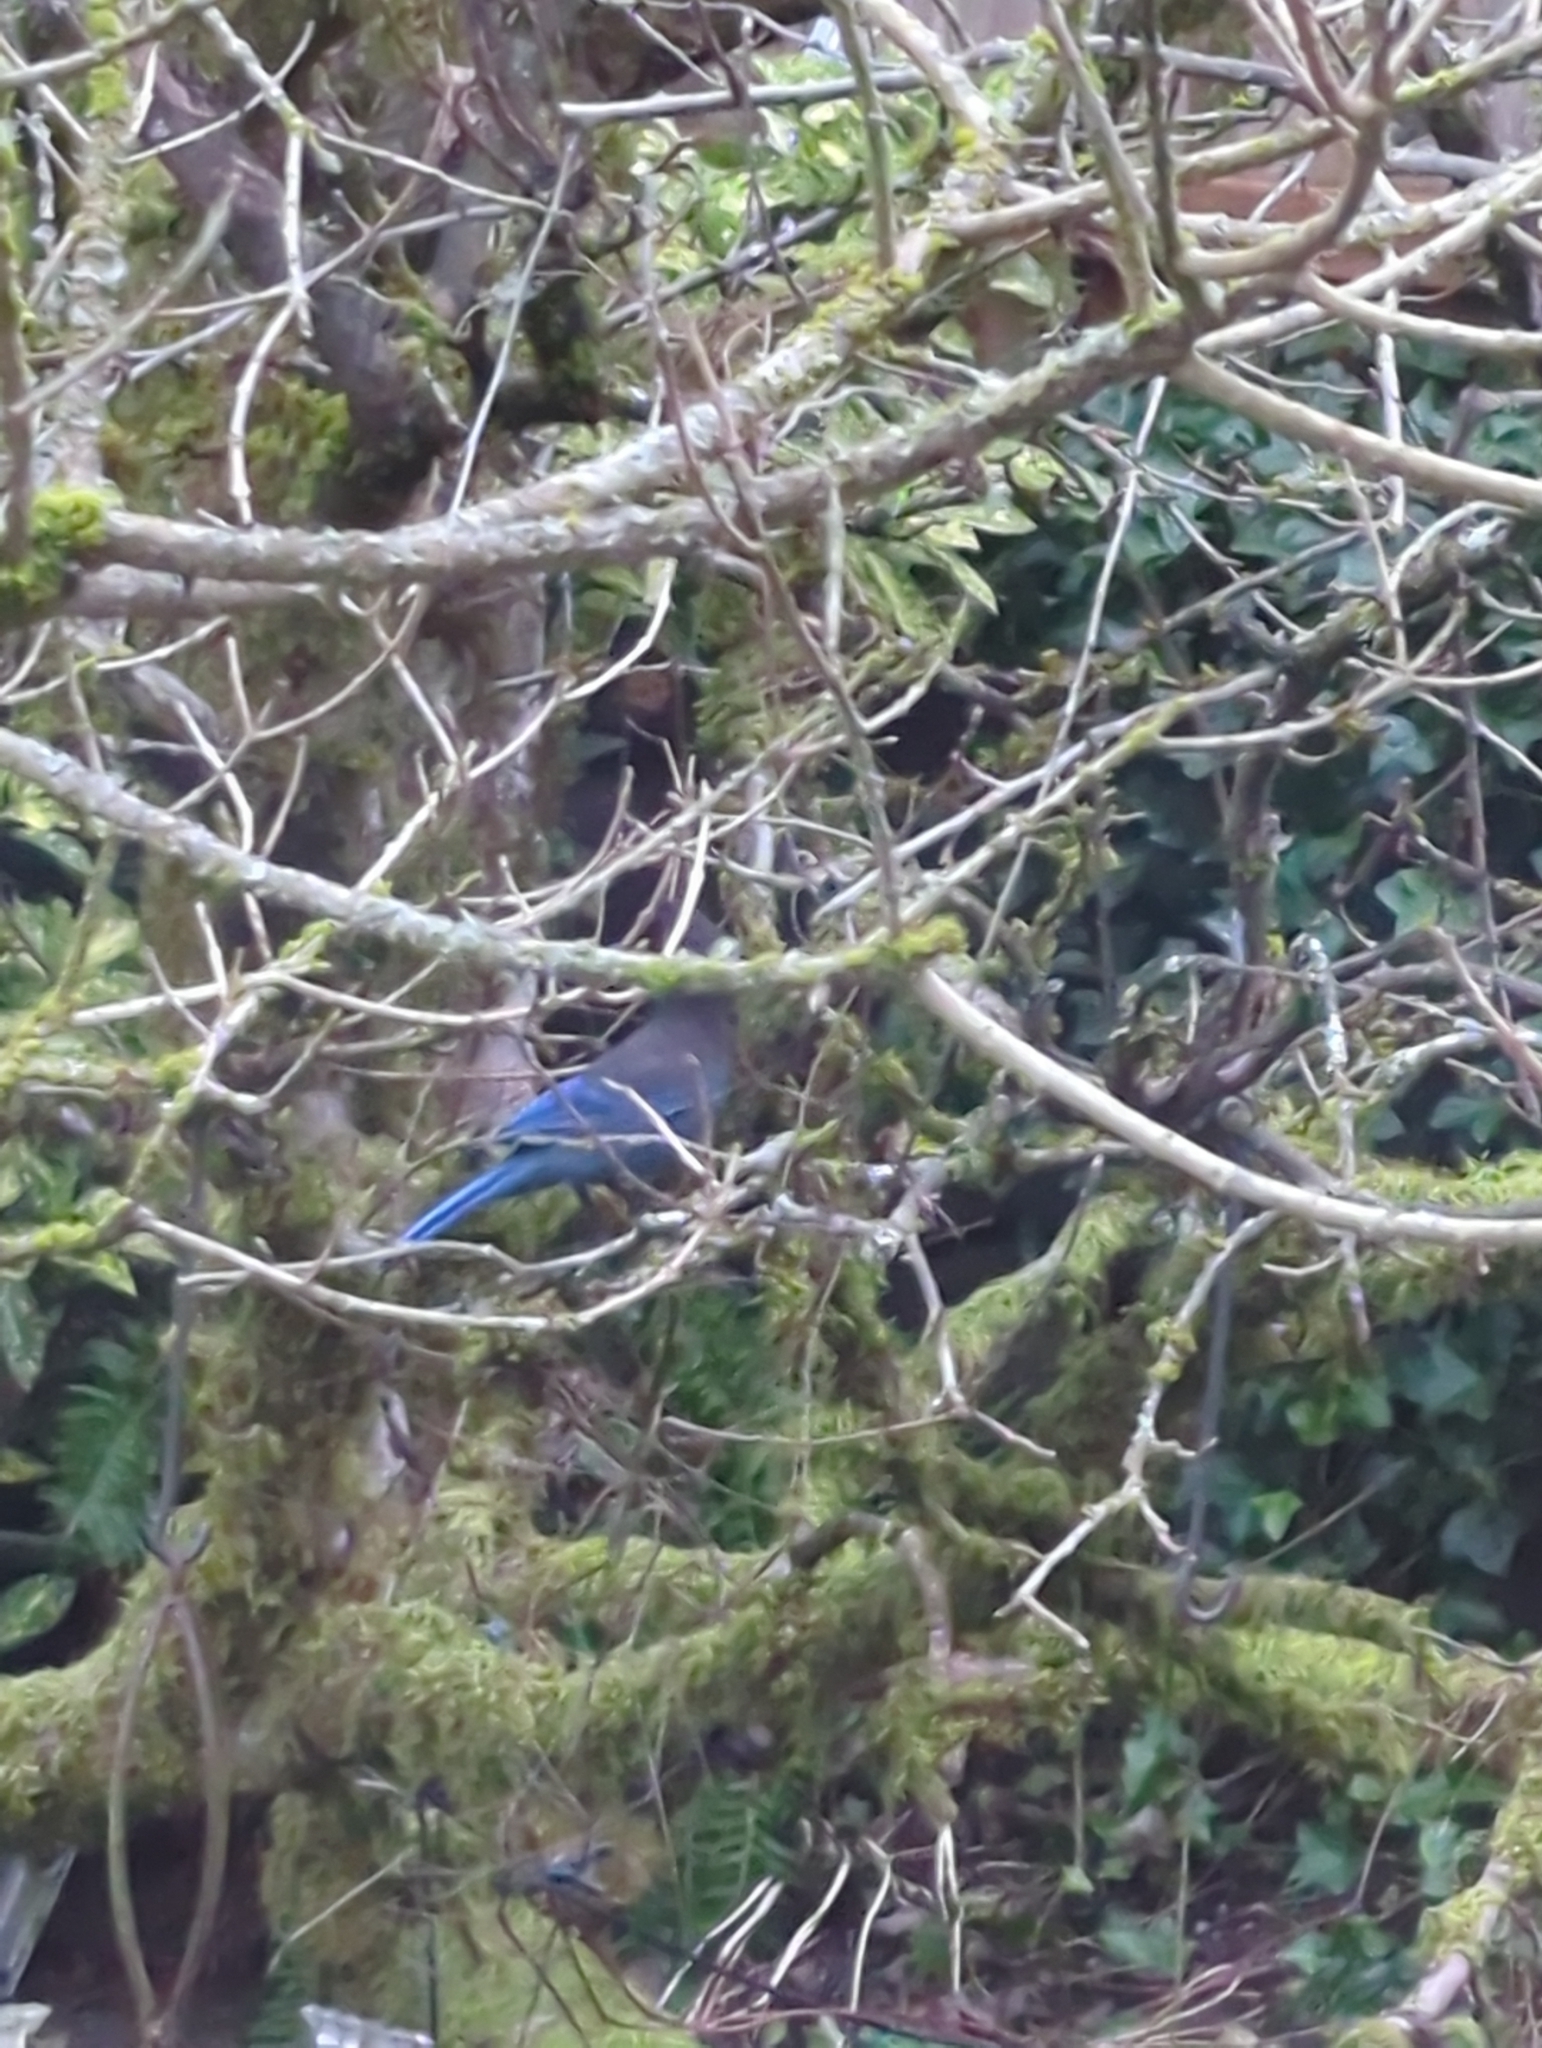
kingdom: Animalia
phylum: Chordata
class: Aves
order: Passeriformes
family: Corvidae
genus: Cyanocitta
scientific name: Cyanocitta stelleri
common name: Steller's jay
